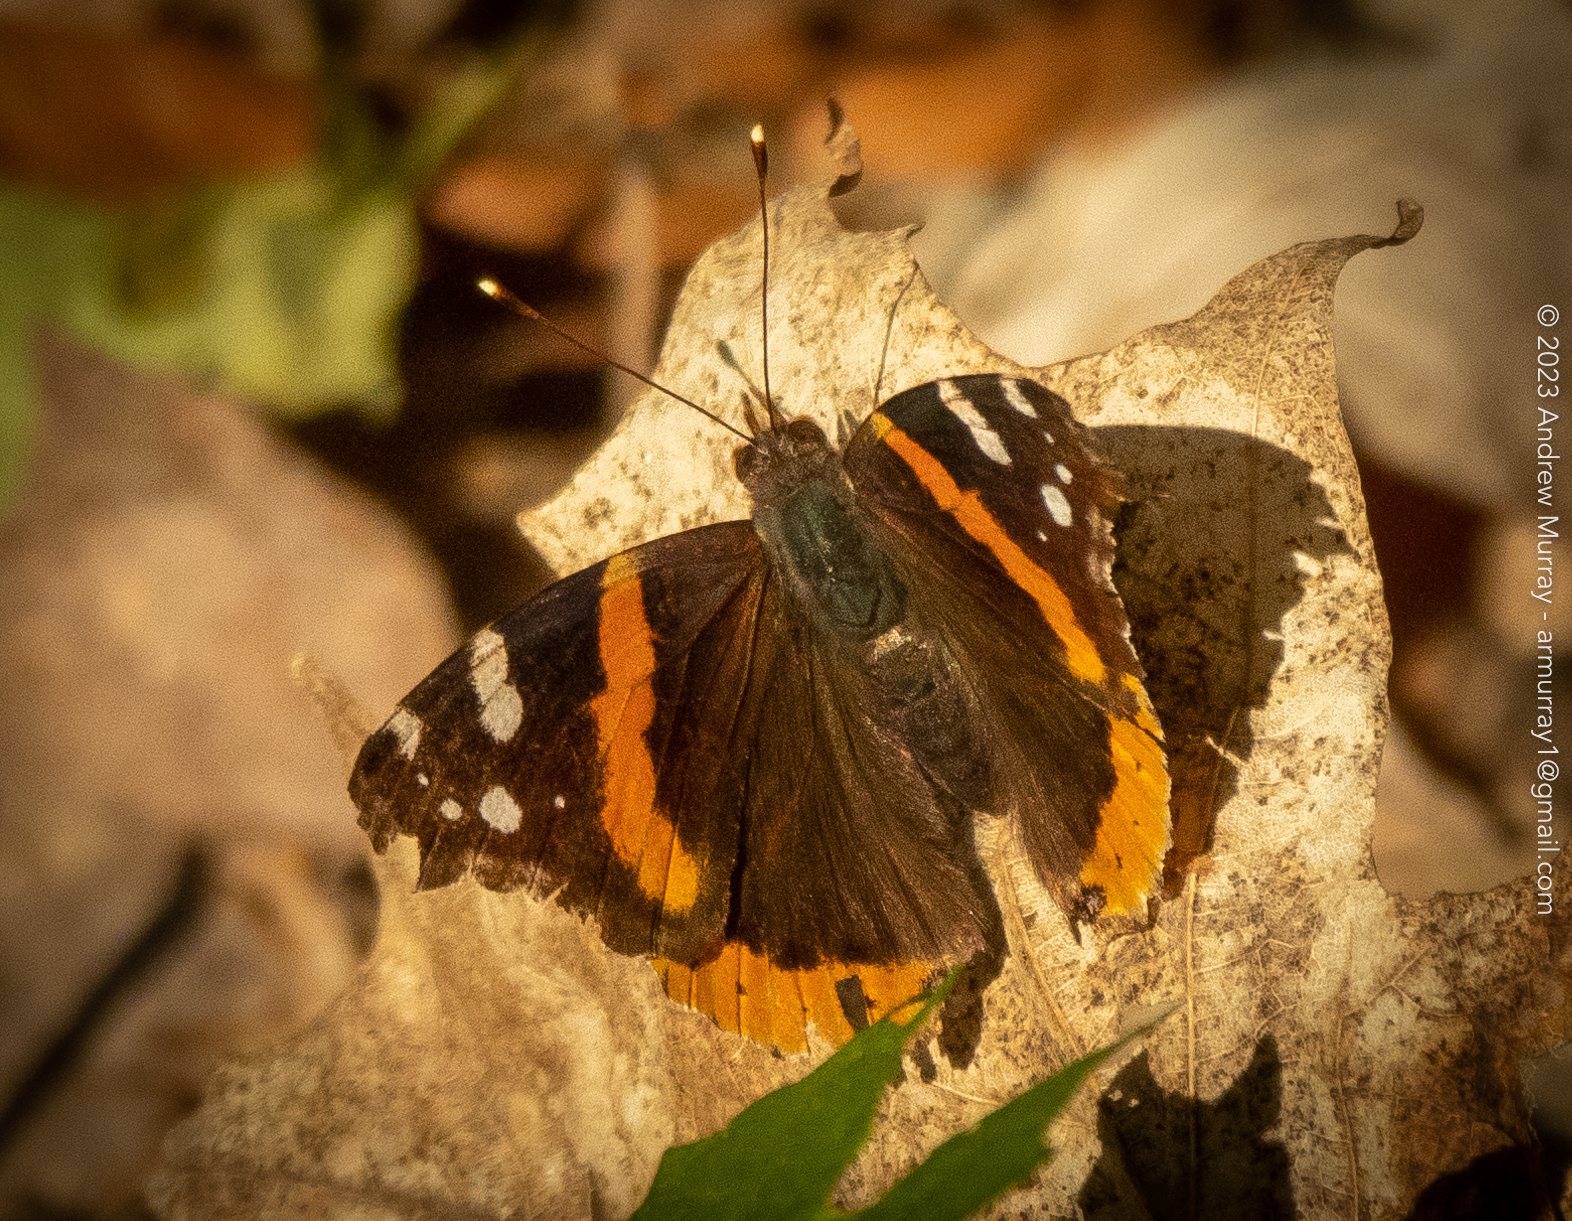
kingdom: Animalia
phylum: Arthropoda
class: Insecta
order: Lepidoptera
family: Nymphalidae
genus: Vanessa
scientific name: Vanessa atalanta
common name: Red admiral
